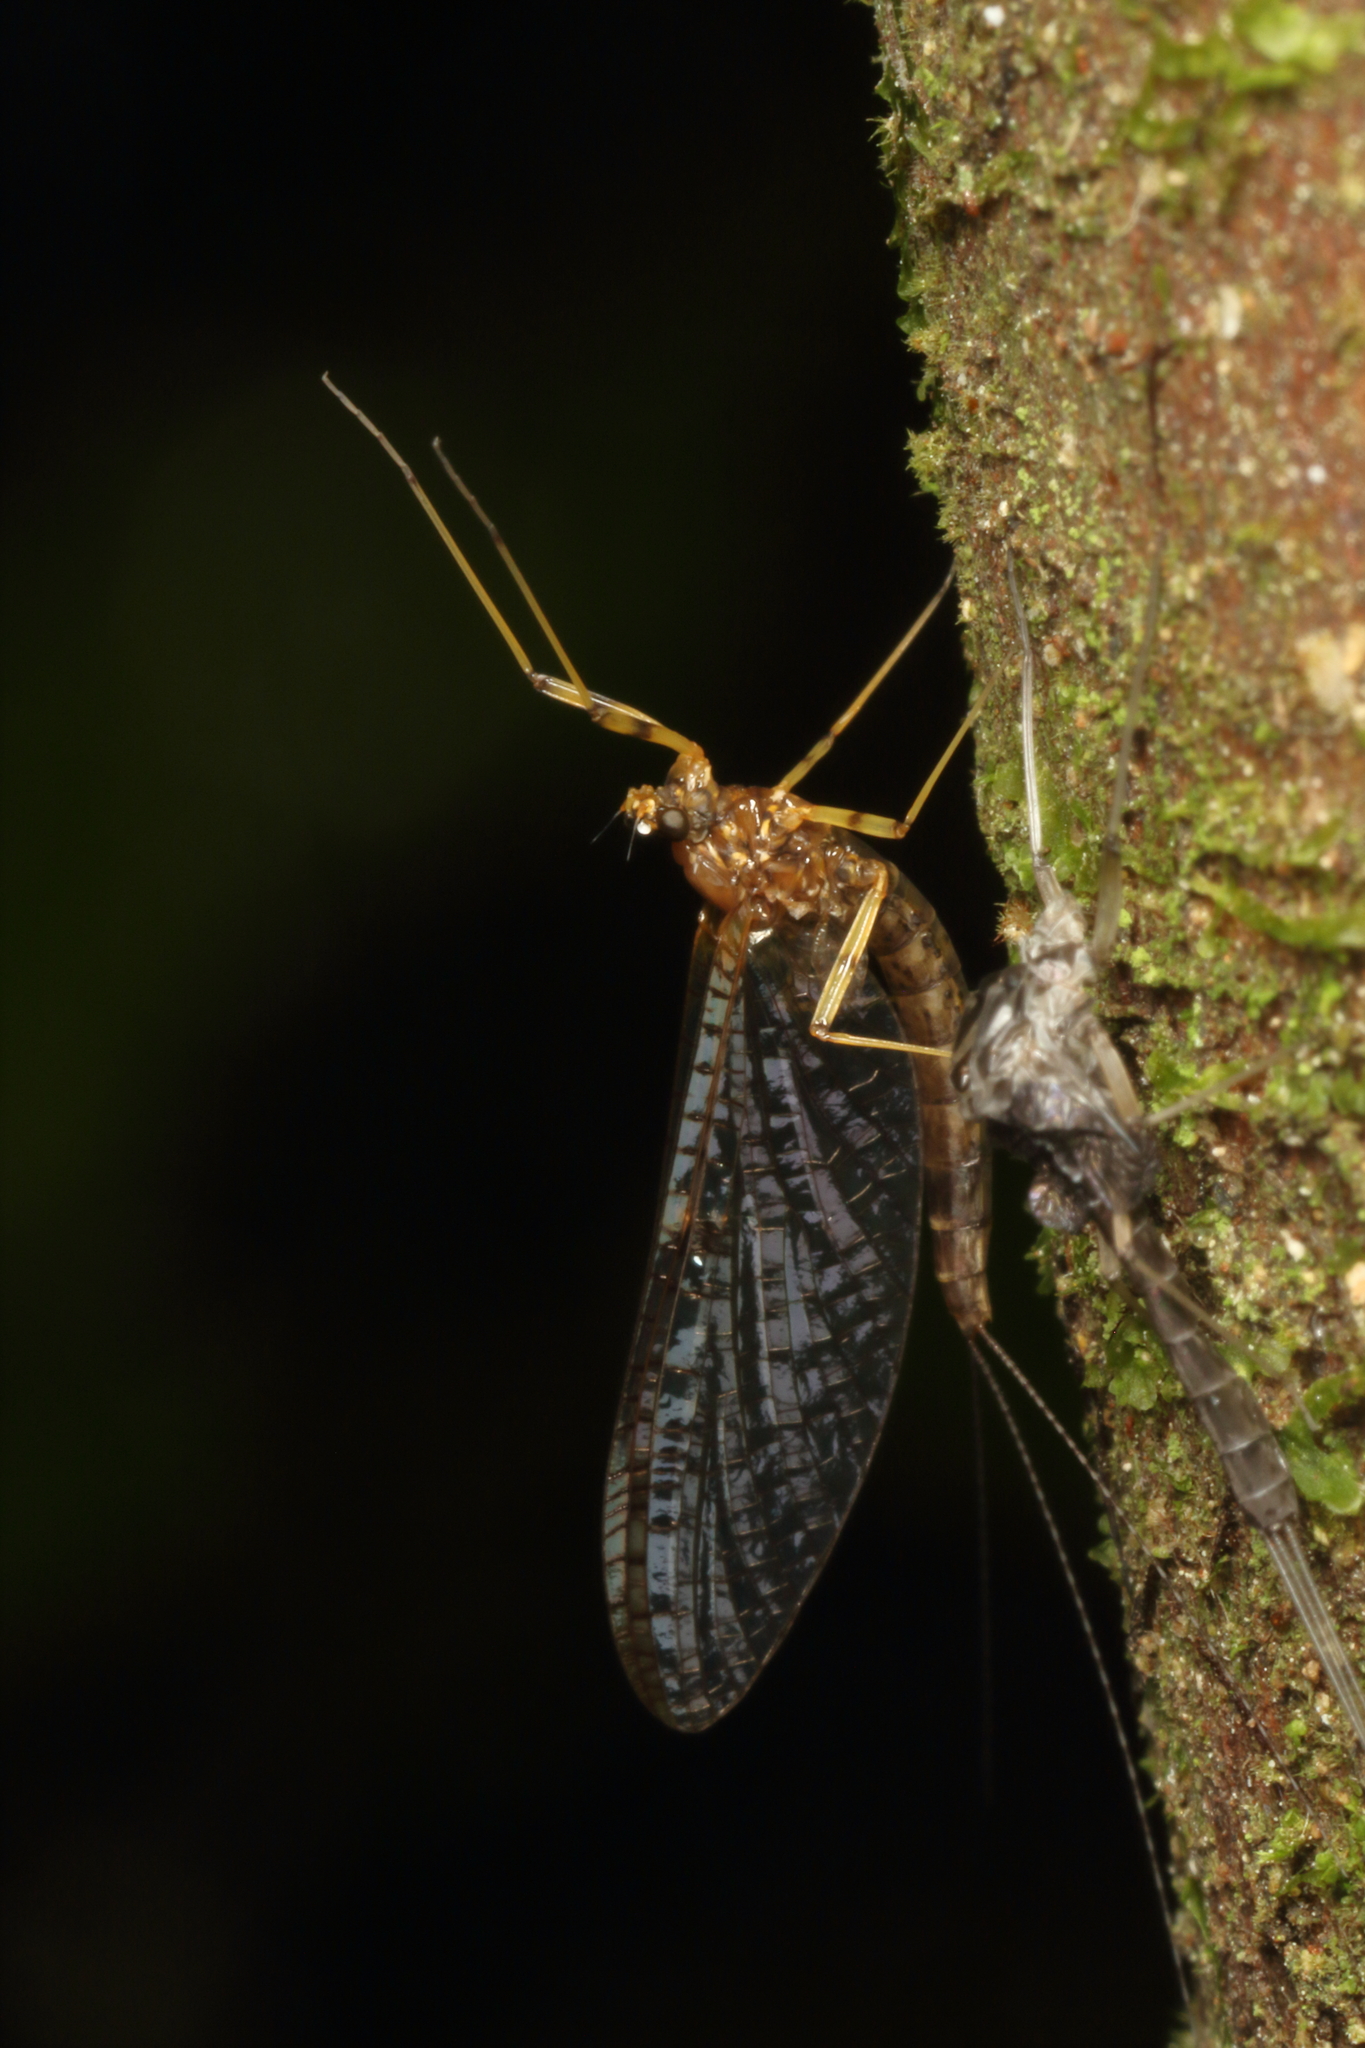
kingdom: Animalia
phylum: Arthropoda
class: Insecta
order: Ephemeroptera
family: Leptophlebiidae
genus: Neozephlebia
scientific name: Neozephlebia scita
